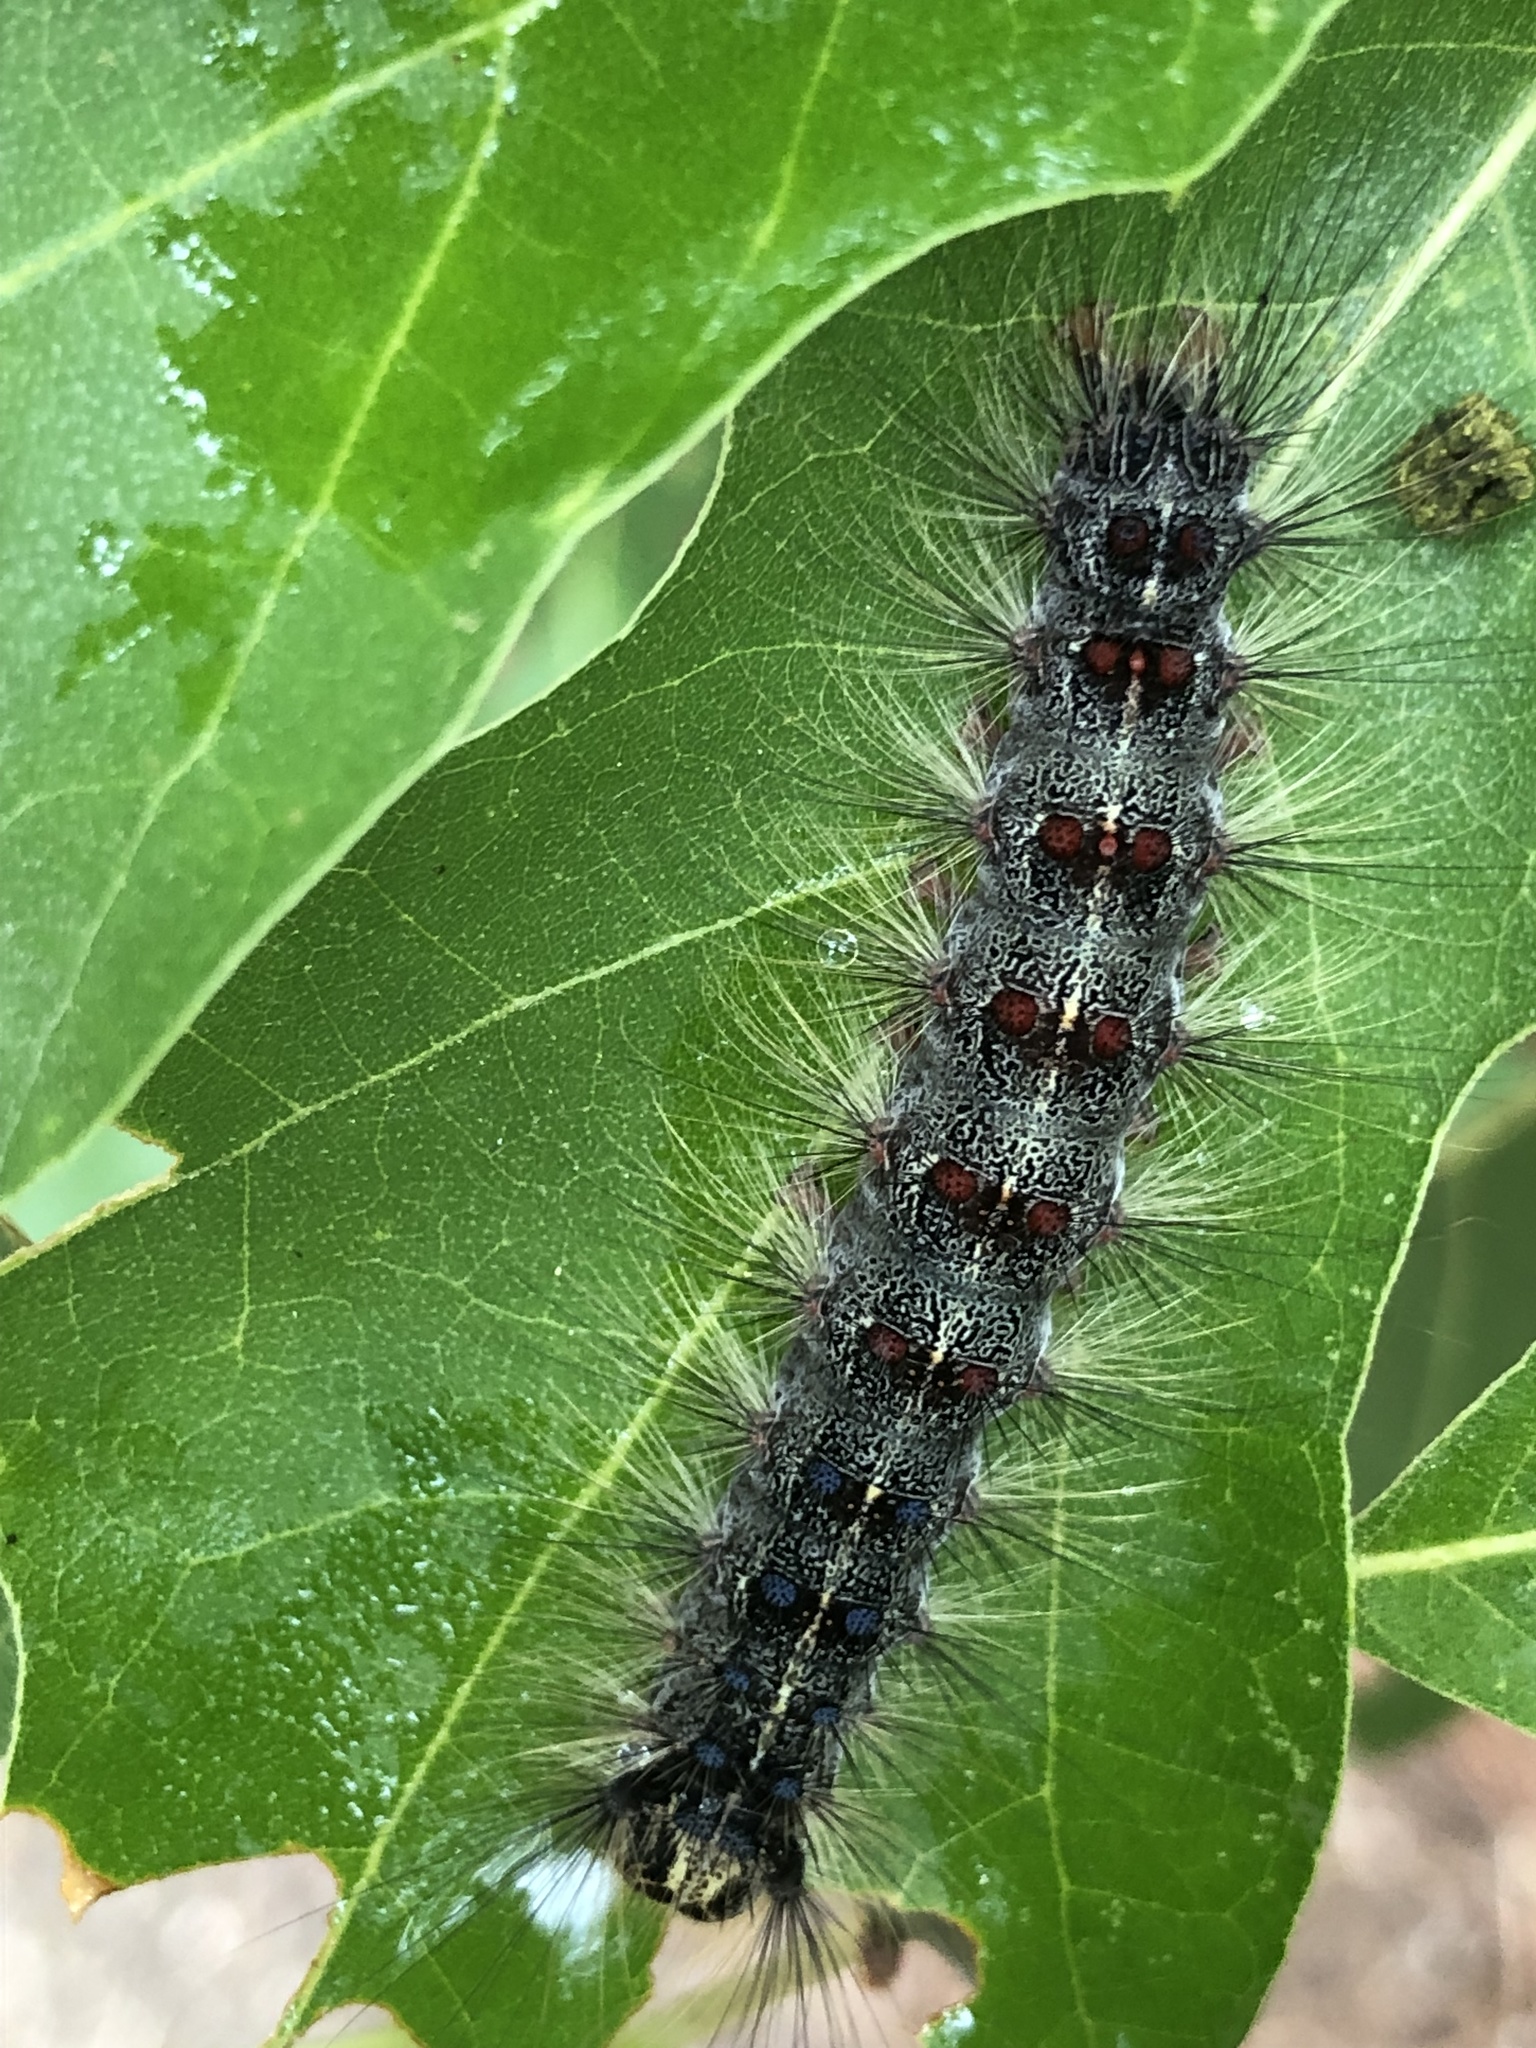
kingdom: Animalia
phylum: Arthropoda
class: Insecta
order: Lepidoptera
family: Erebidae
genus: Lymantria
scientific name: Lymantria dispar
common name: Gypsy moth
